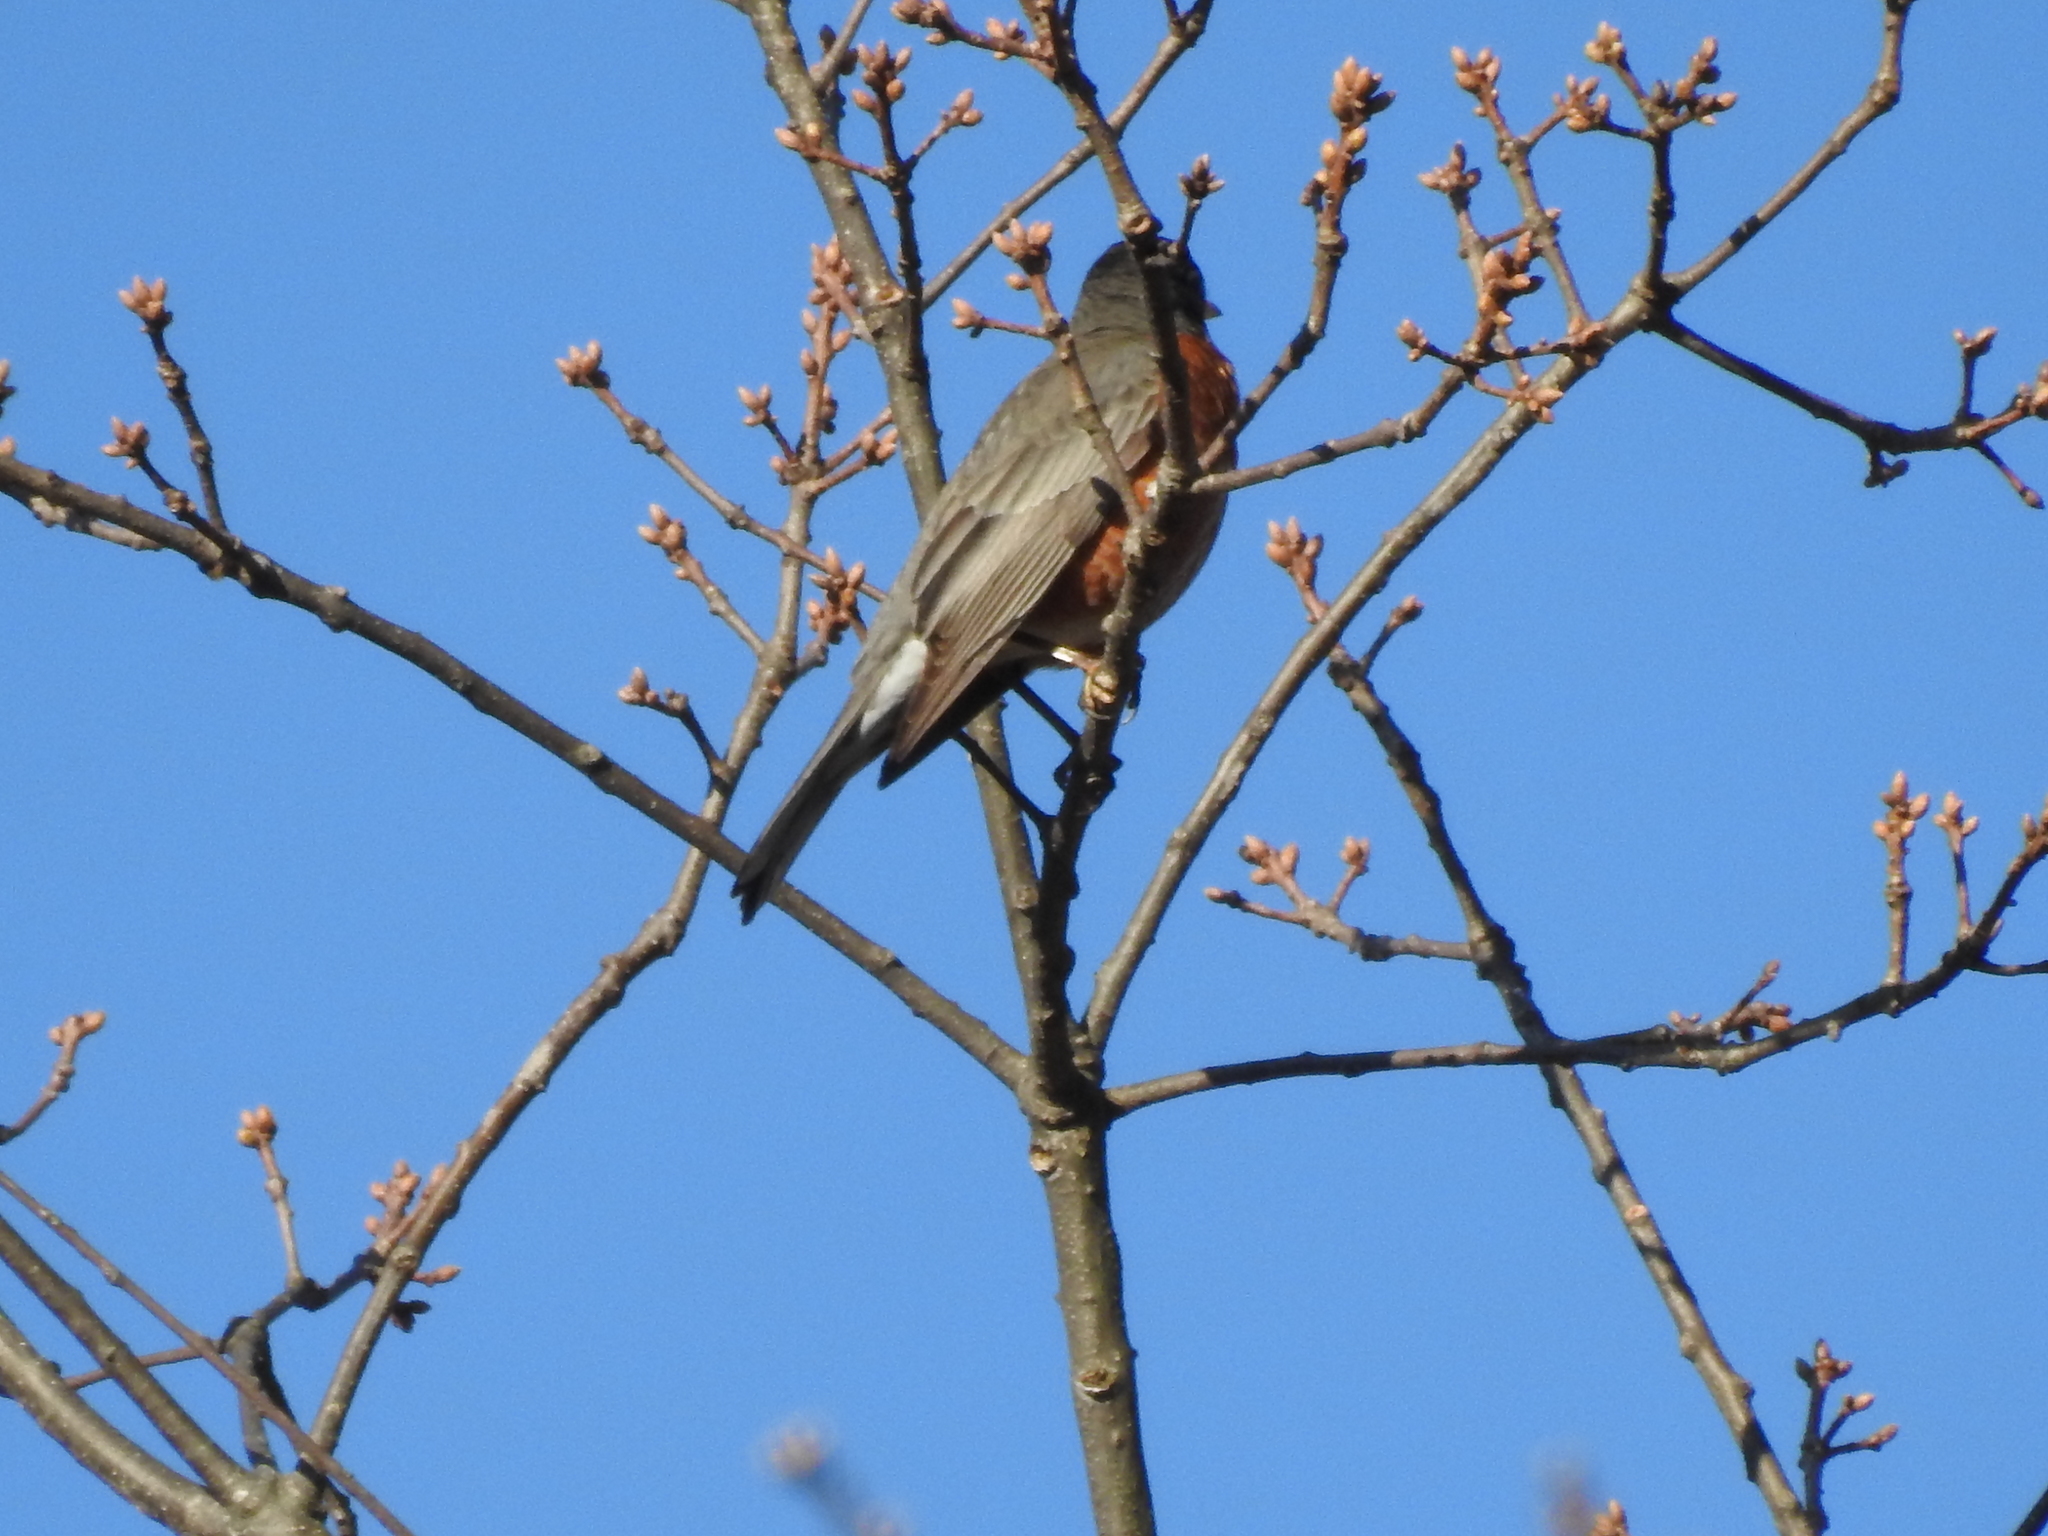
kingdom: Animalia
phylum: Chordata
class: Aves
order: Passeriformes
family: Turdidae
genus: Turdus
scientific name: Turdus migratorius
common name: American robin
